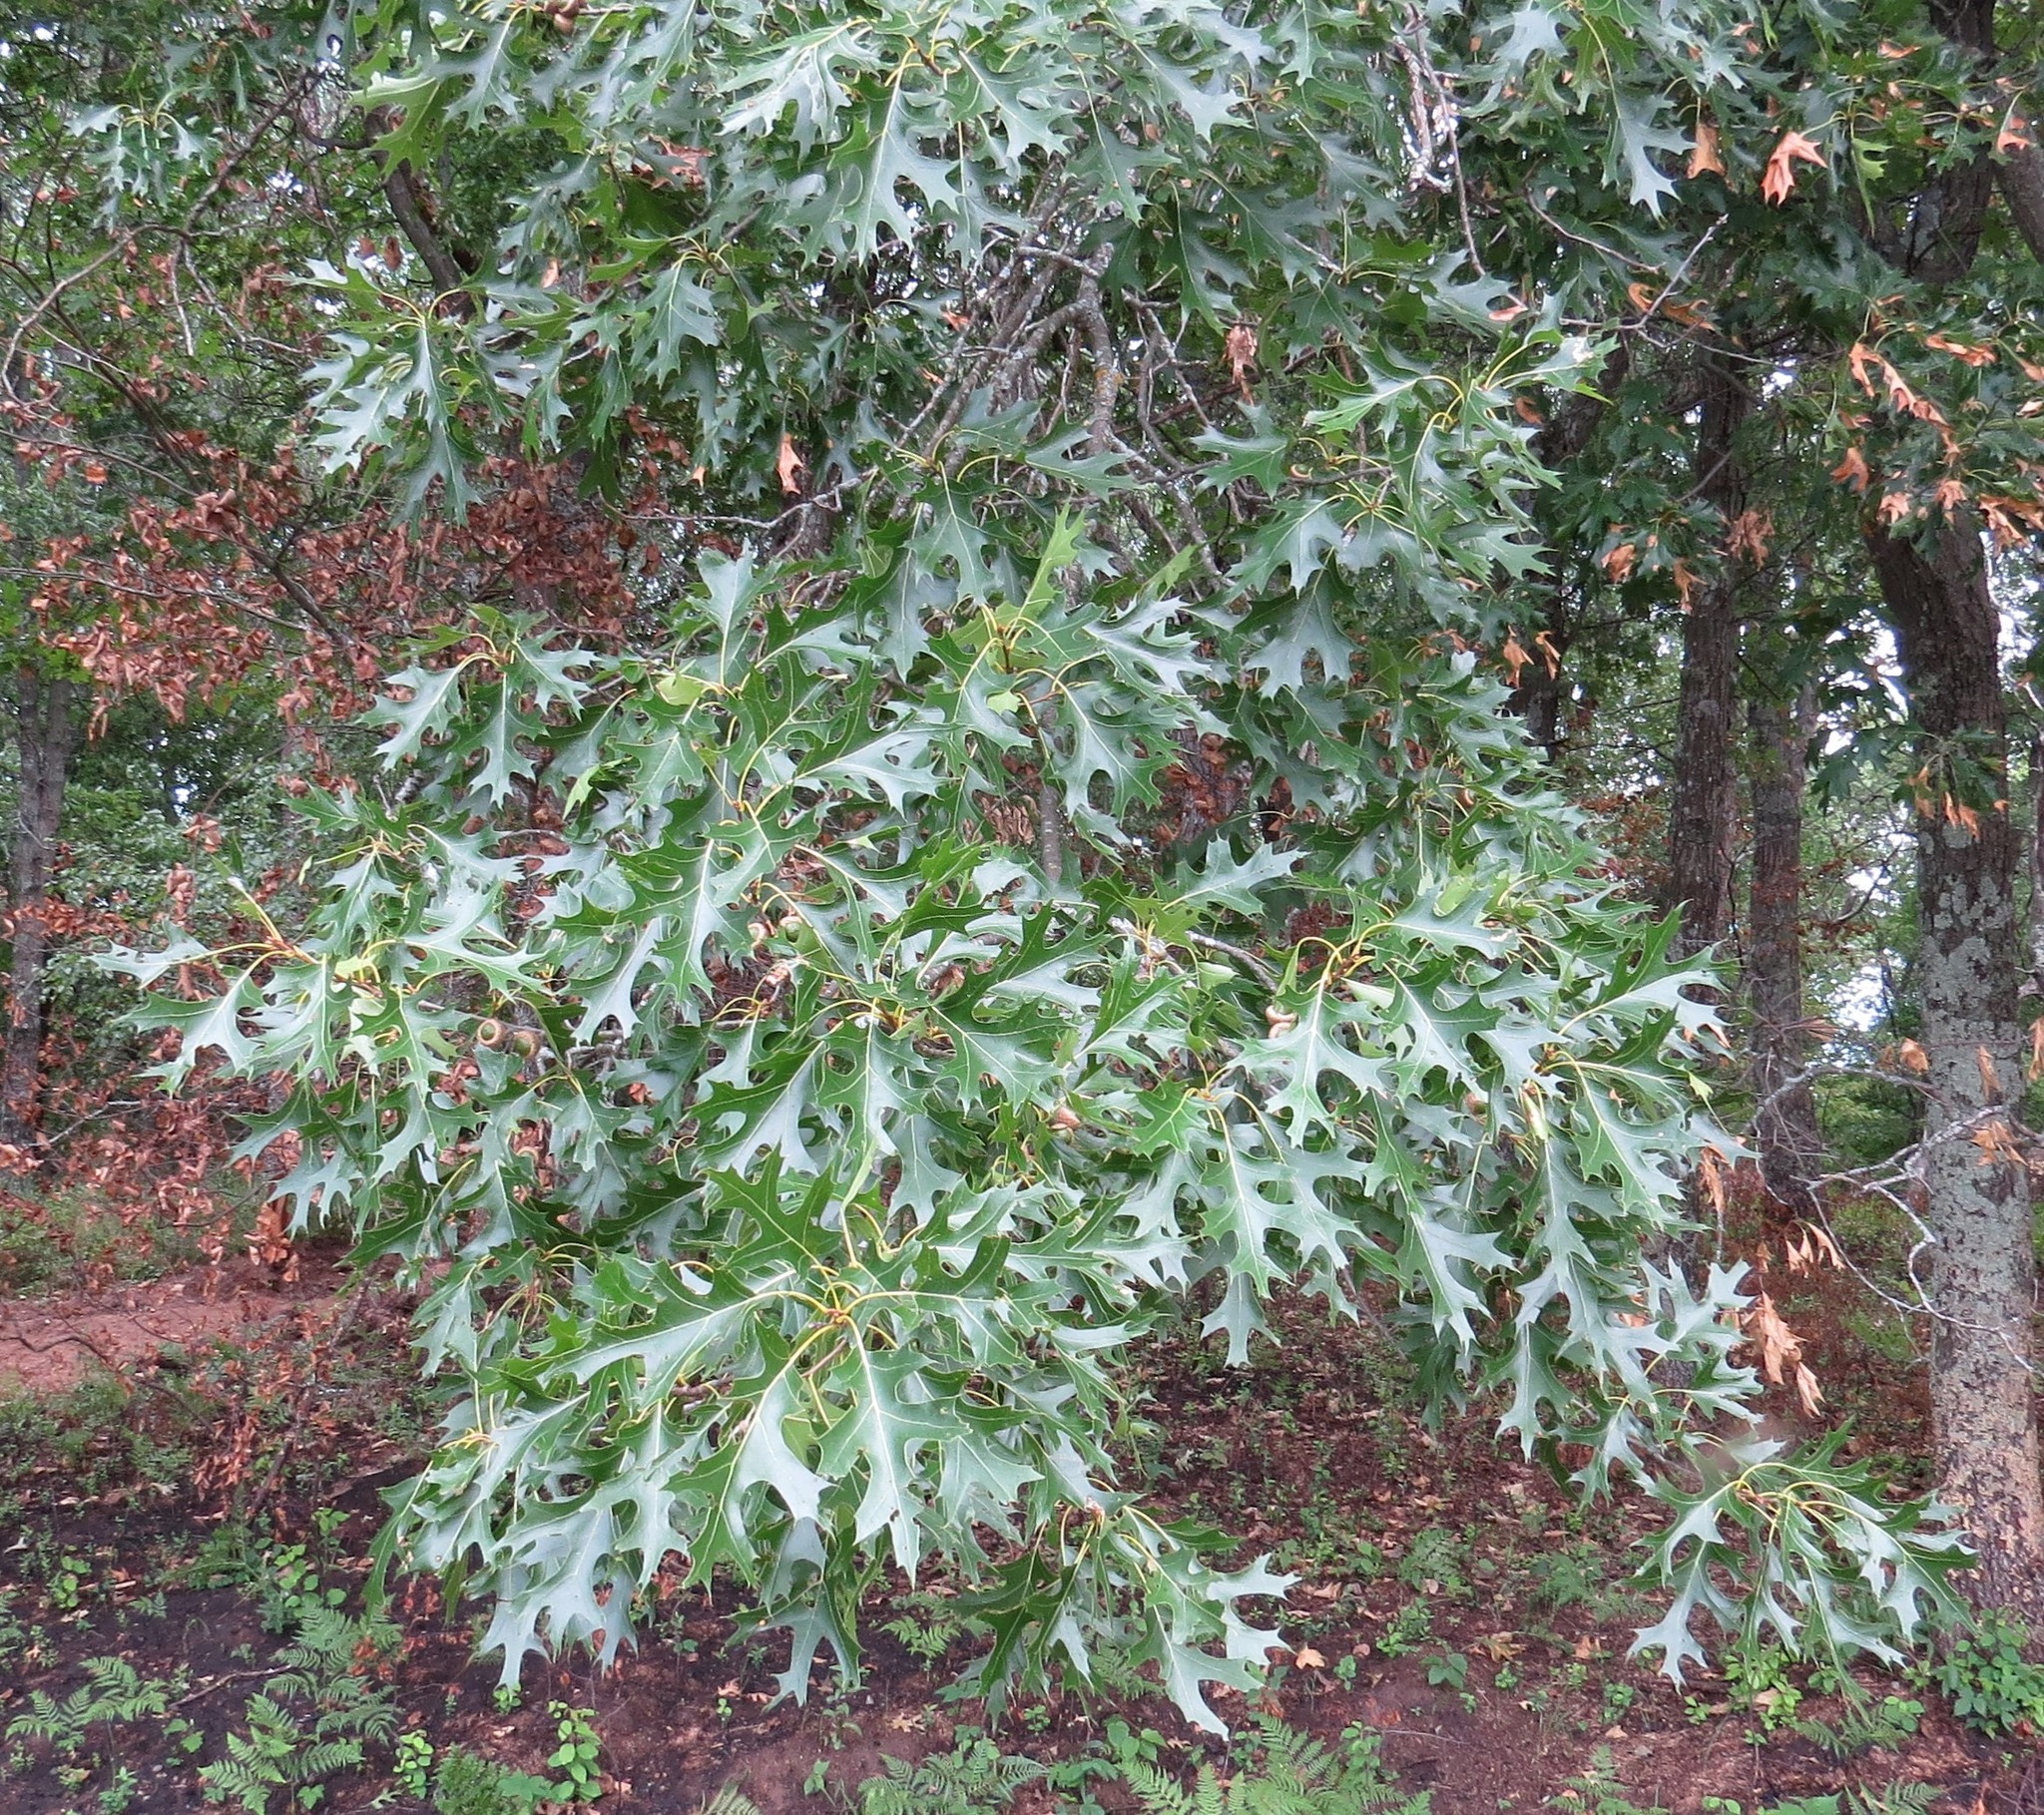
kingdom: Plantae
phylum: Tracheophyta
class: Magnoliopsida
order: Fagales
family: Fagaceae
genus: Quercus
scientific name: Quercus ellipsoidalis
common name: Hill's oak
